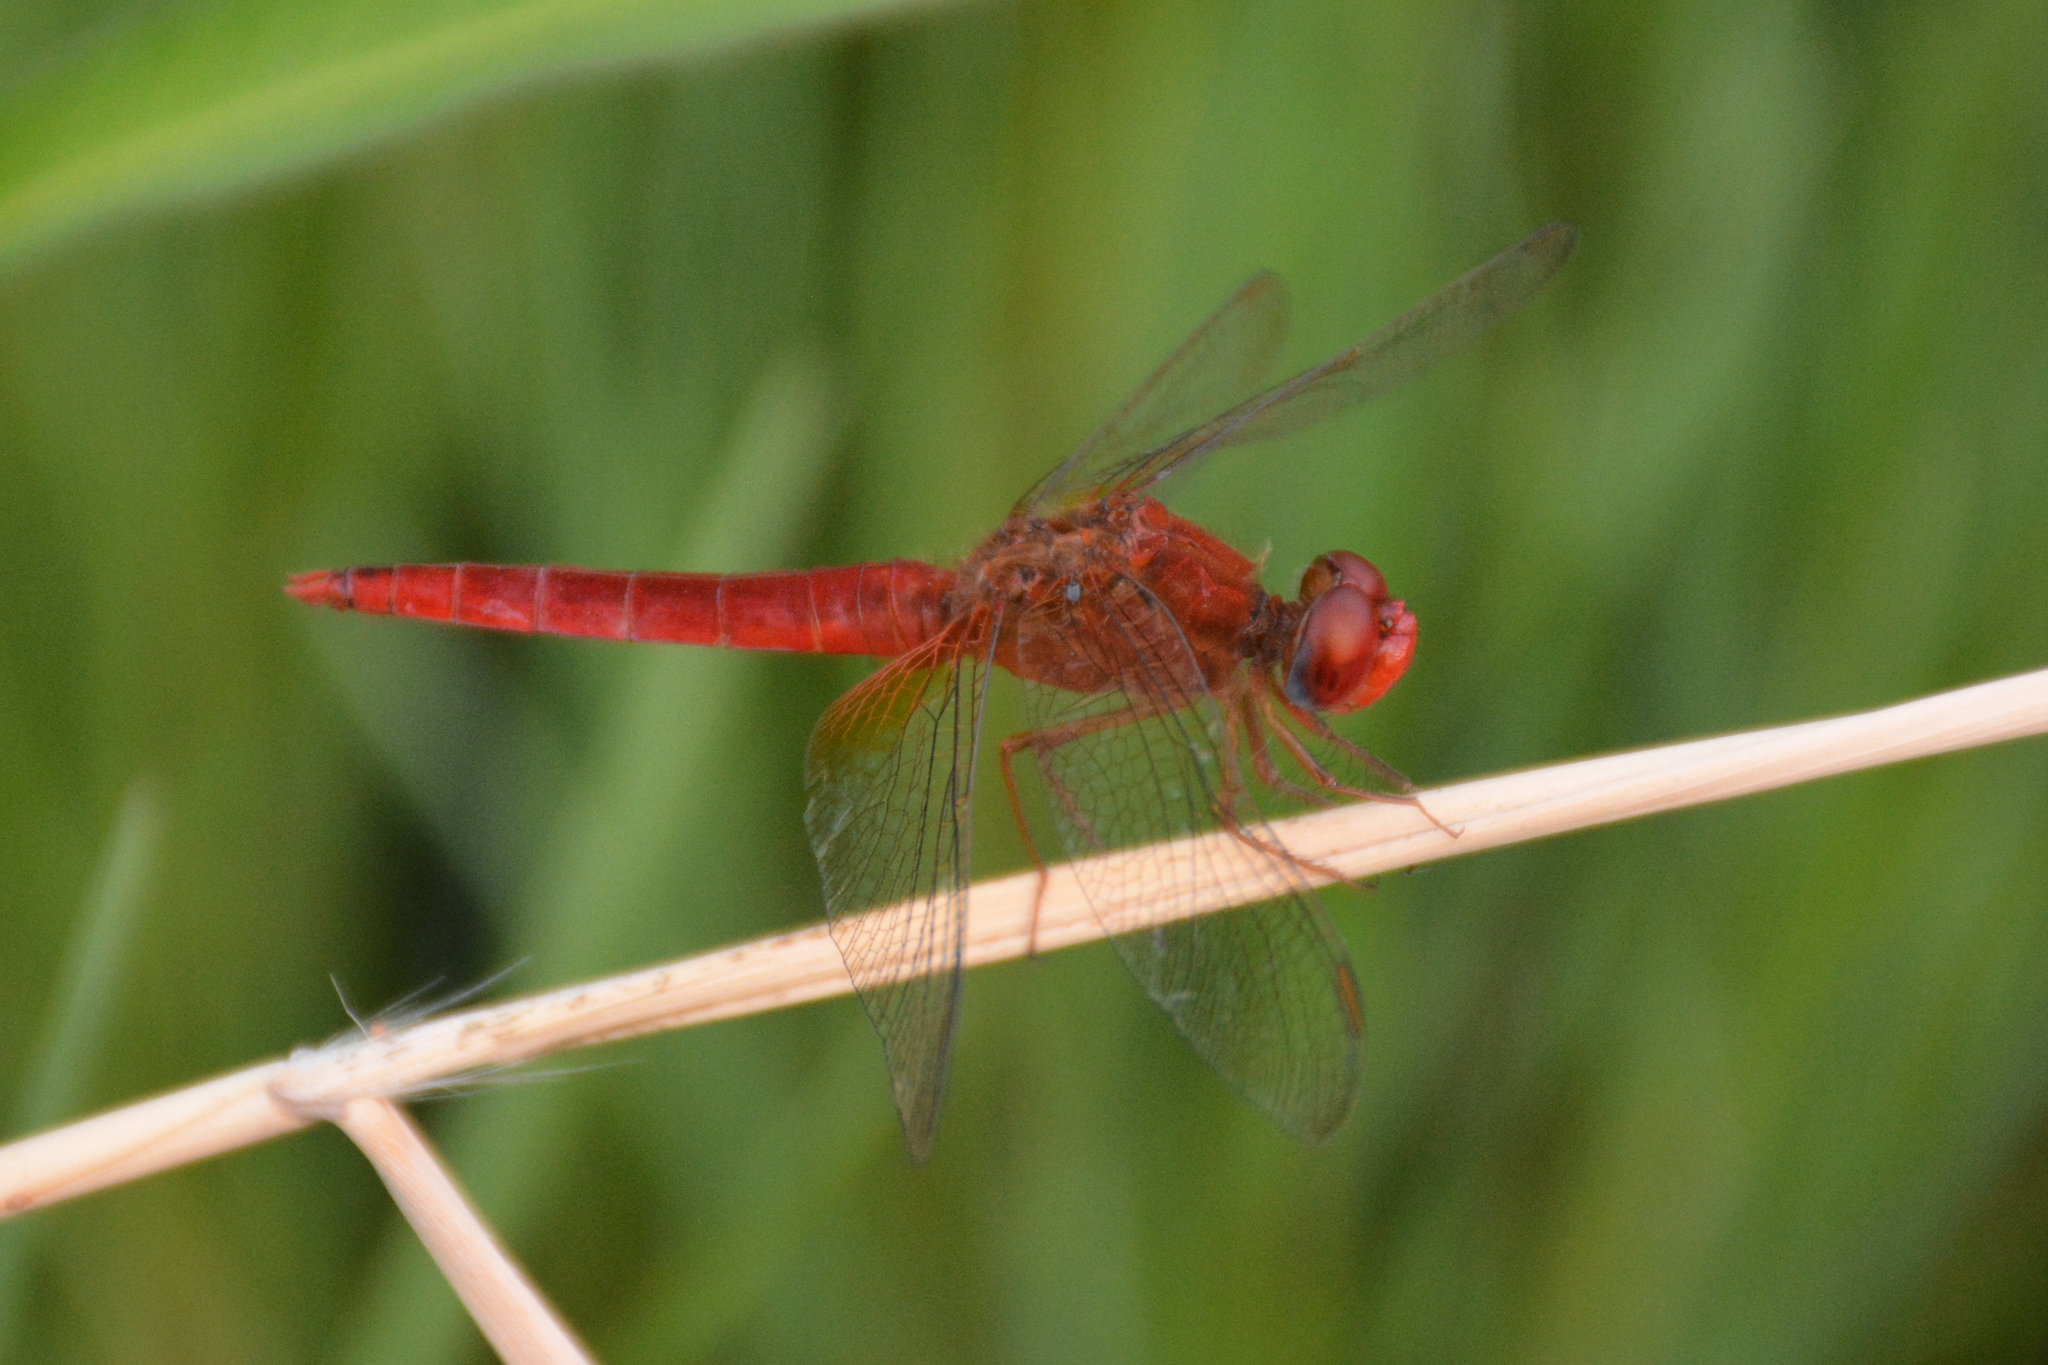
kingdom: Animalia
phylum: Arthropoda
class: Insecta
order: Odonata
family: Libellulidae
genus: Crocothemis
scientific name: Crocothemis erythraea
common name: Scarlet dragonfly
